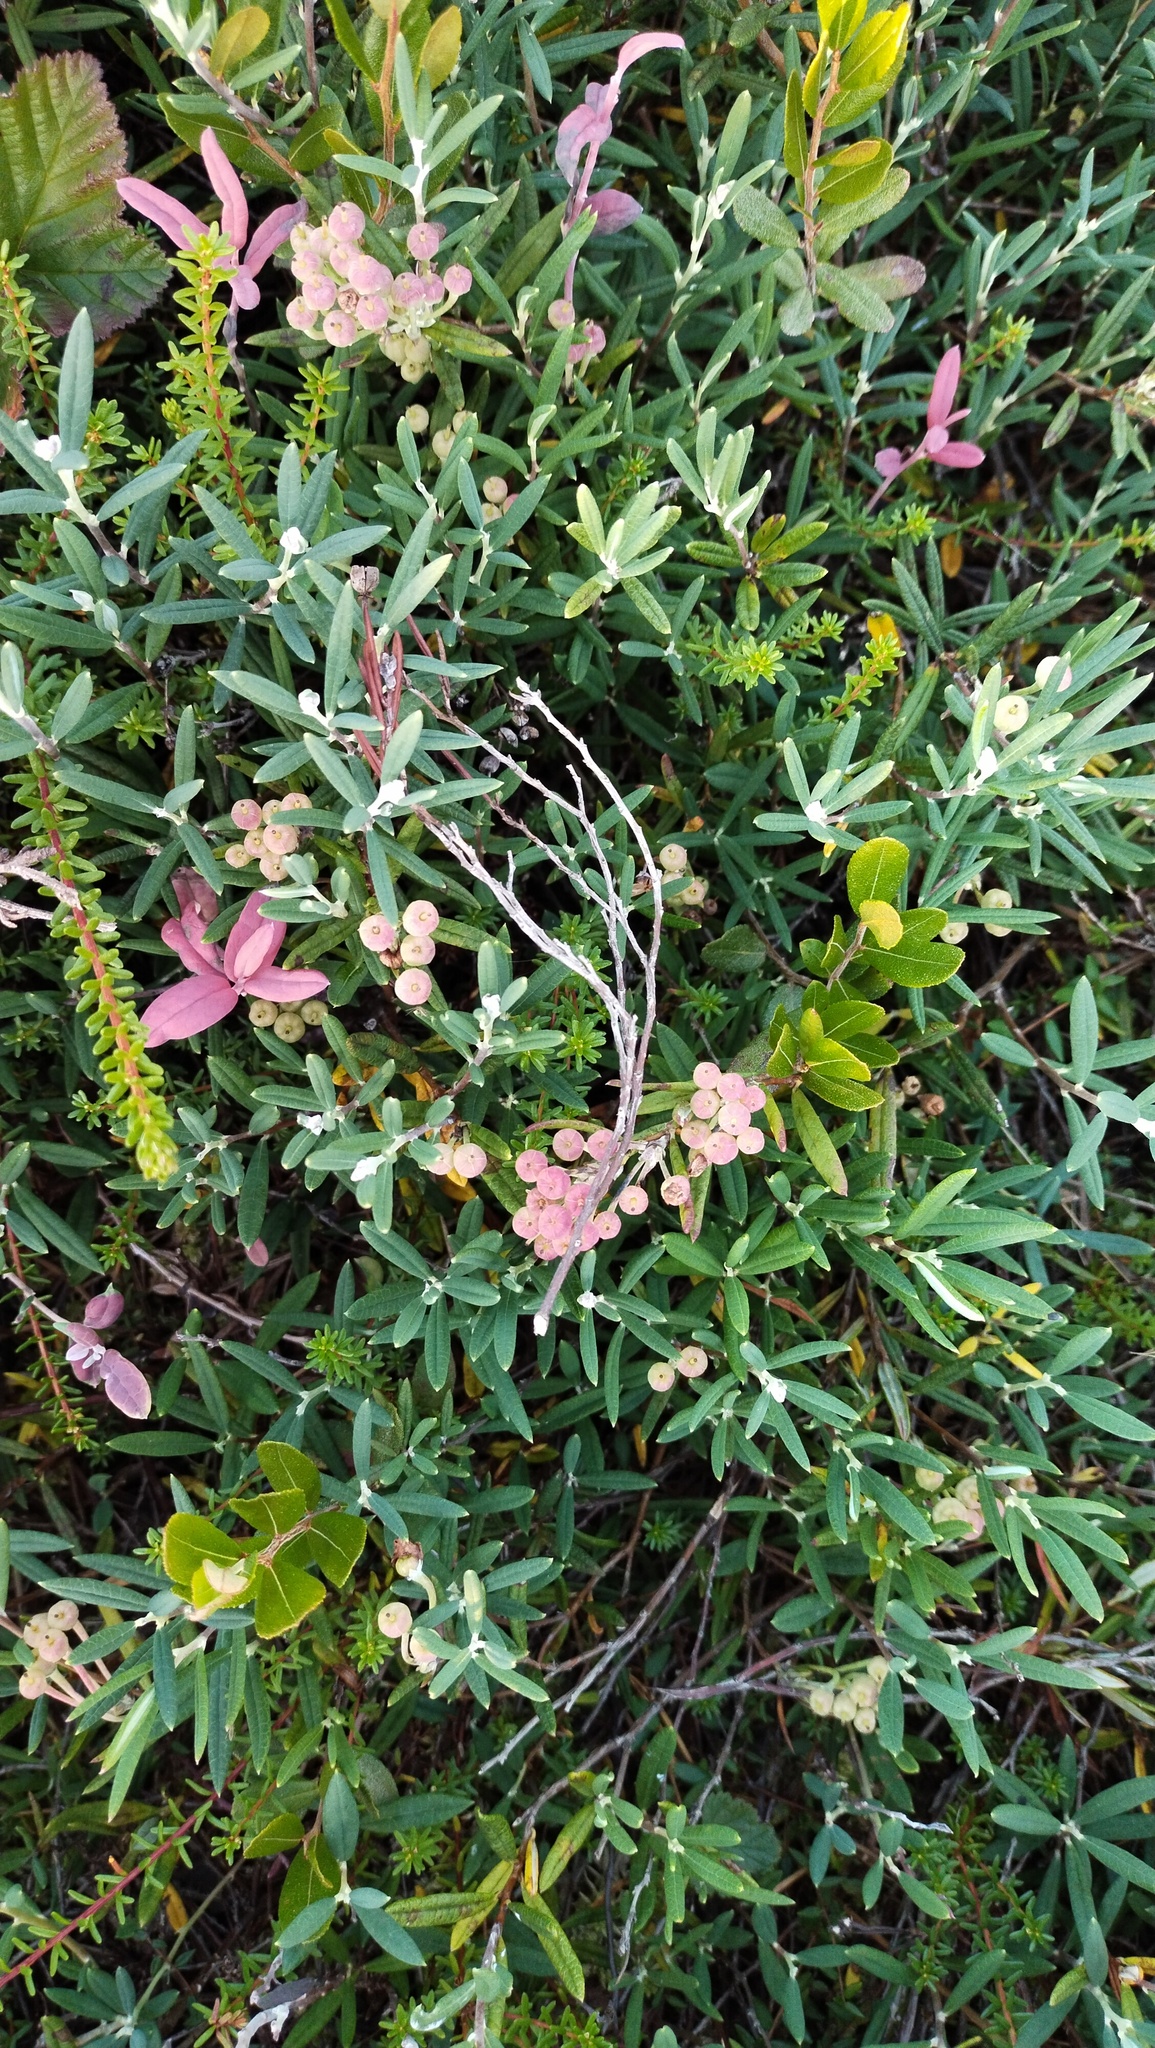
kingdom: Plantae
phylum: Tracheophyta
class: Magnoliopsida
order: Ericales
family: Ericaceae
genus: Andromeda
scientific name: Andromeda polifolia
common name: Bog-rosemary
